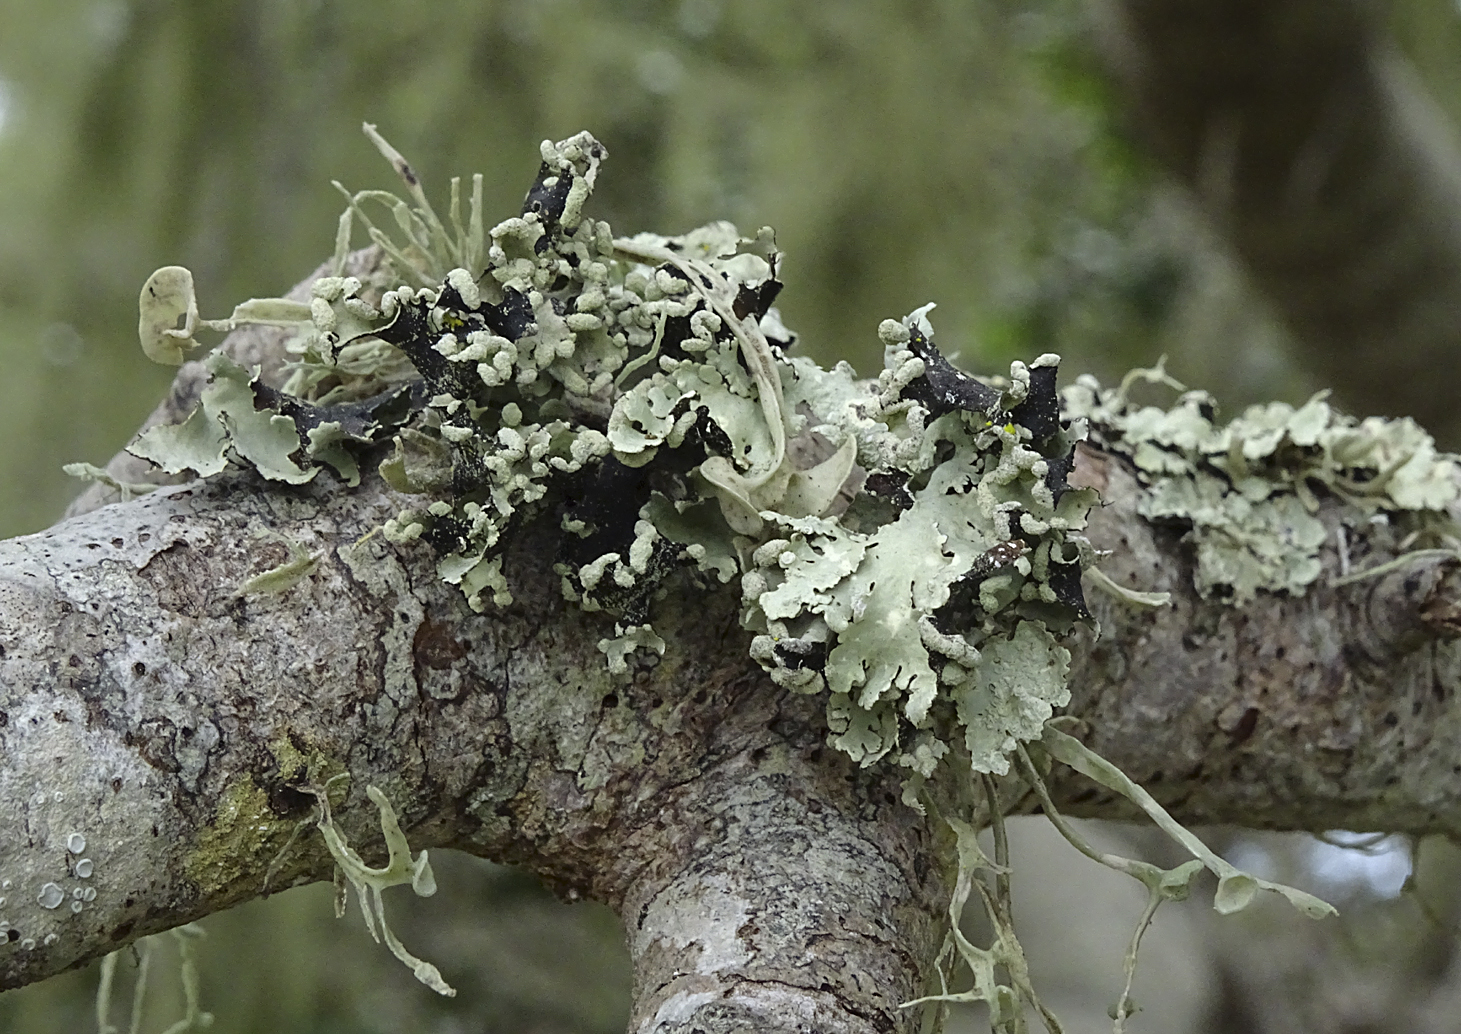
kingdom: Fungi
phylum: Ascomycota
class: Lecanoromycetes
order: Lecanorales
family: Parmeliaceae
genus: Parmotrema
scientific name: Parmotrema perlatum
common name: Black stone flower
